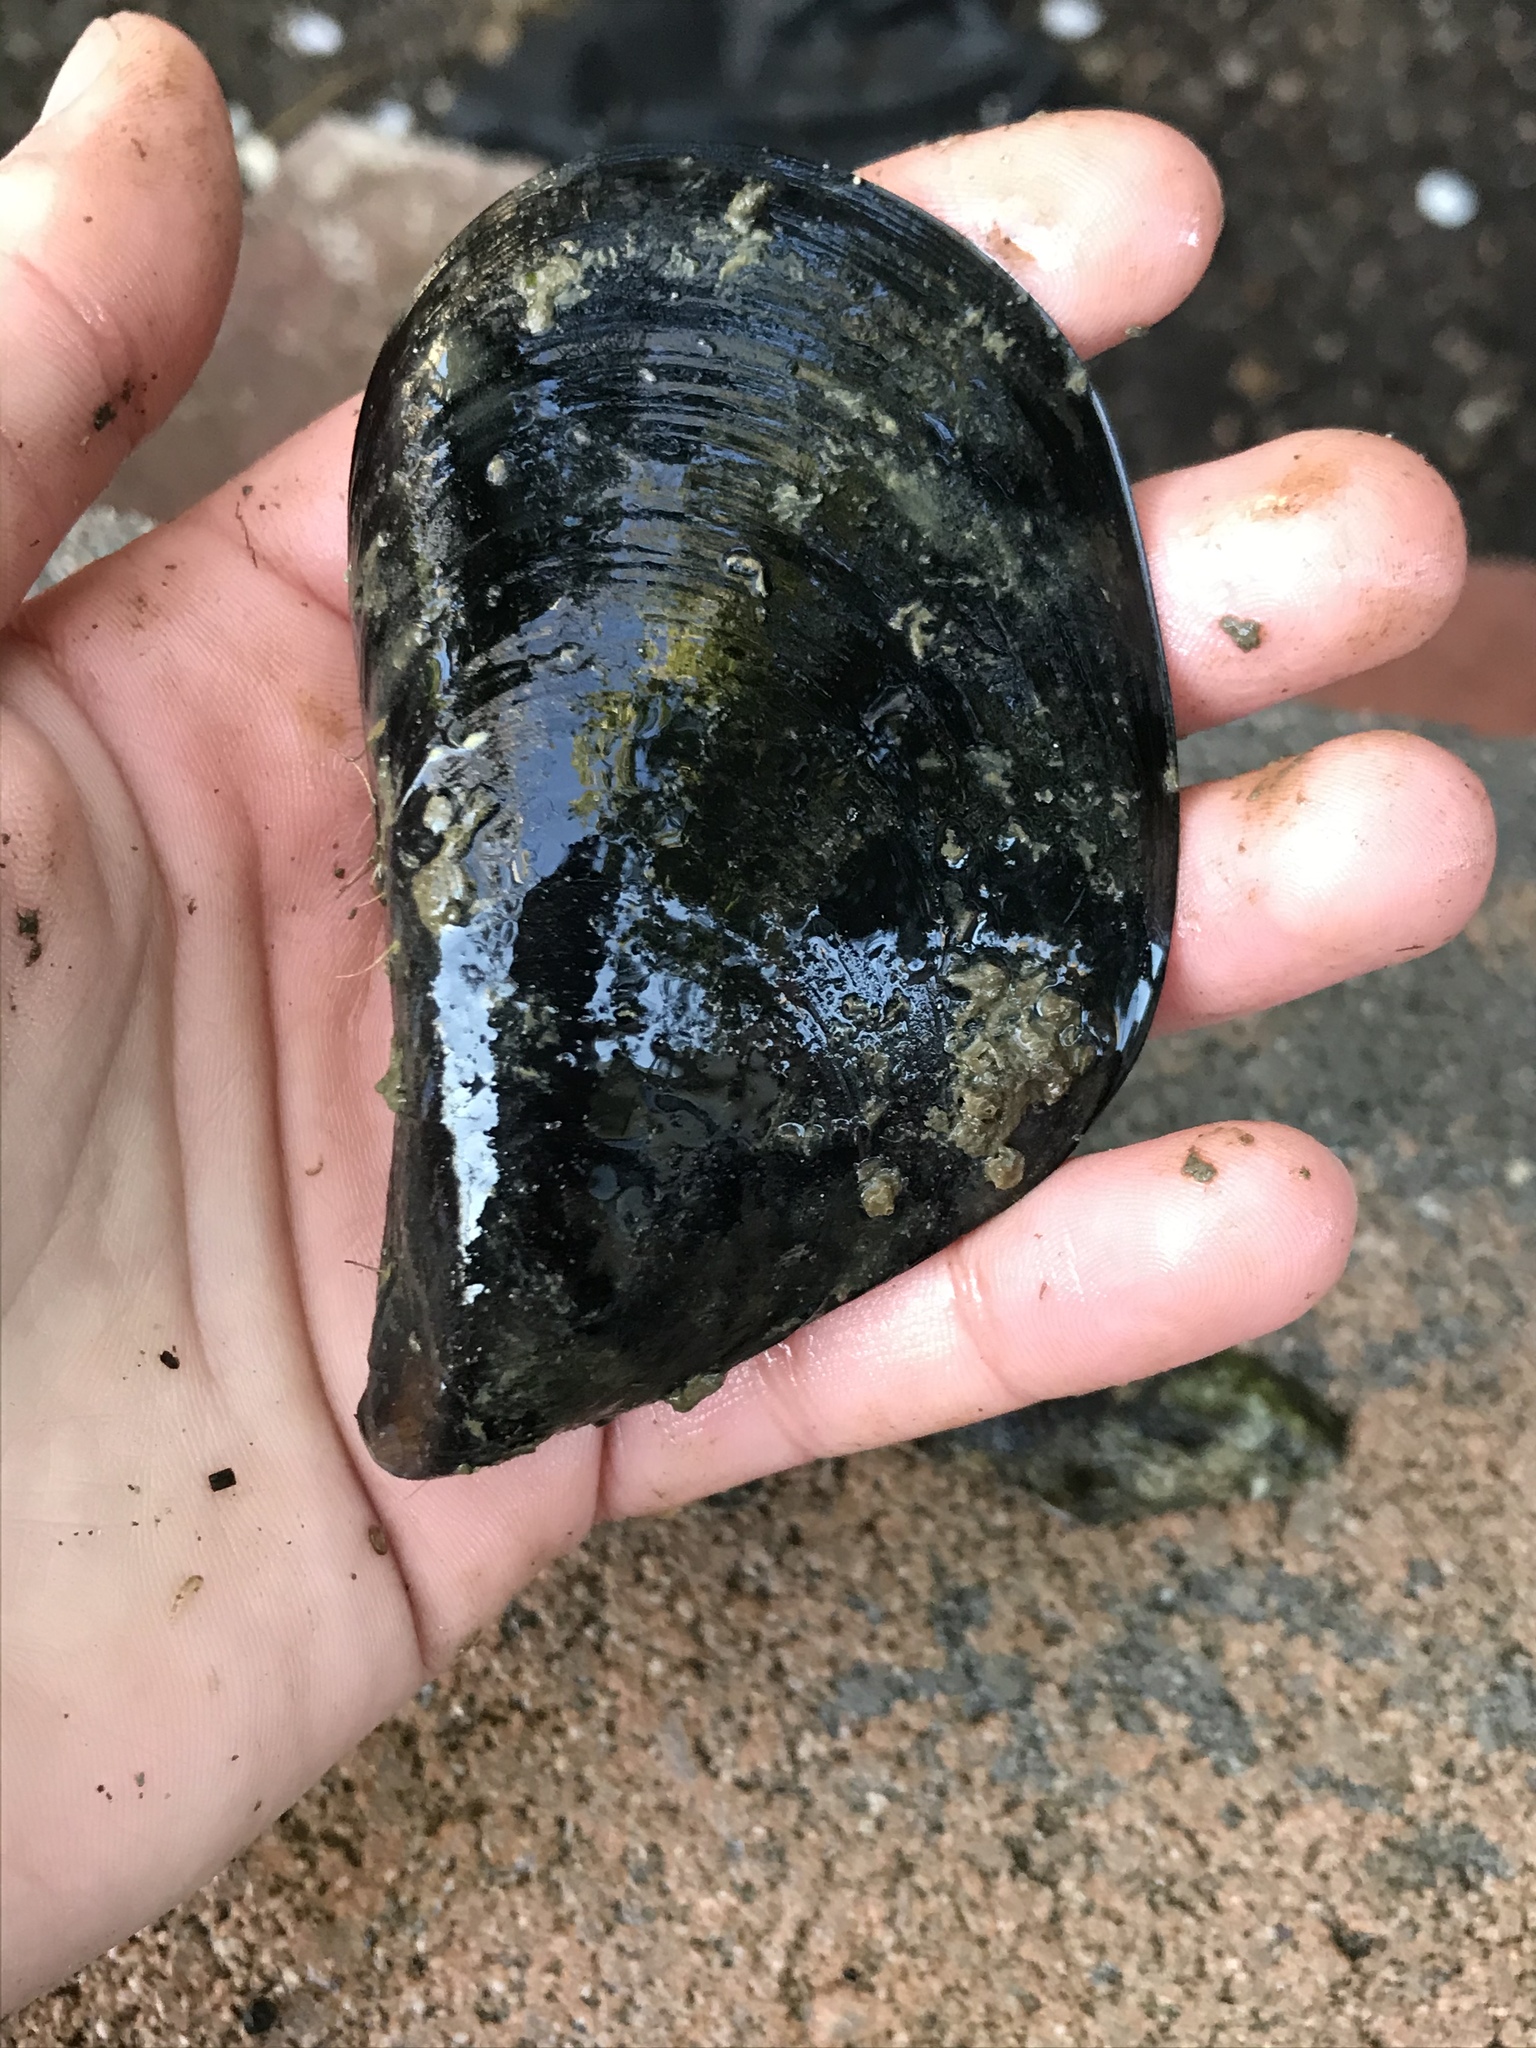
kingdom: Animalia
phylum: Mollusca
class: Bivalvia
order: Mytilida
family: Mytilidae
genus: Mytilus
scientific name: Mytilus
